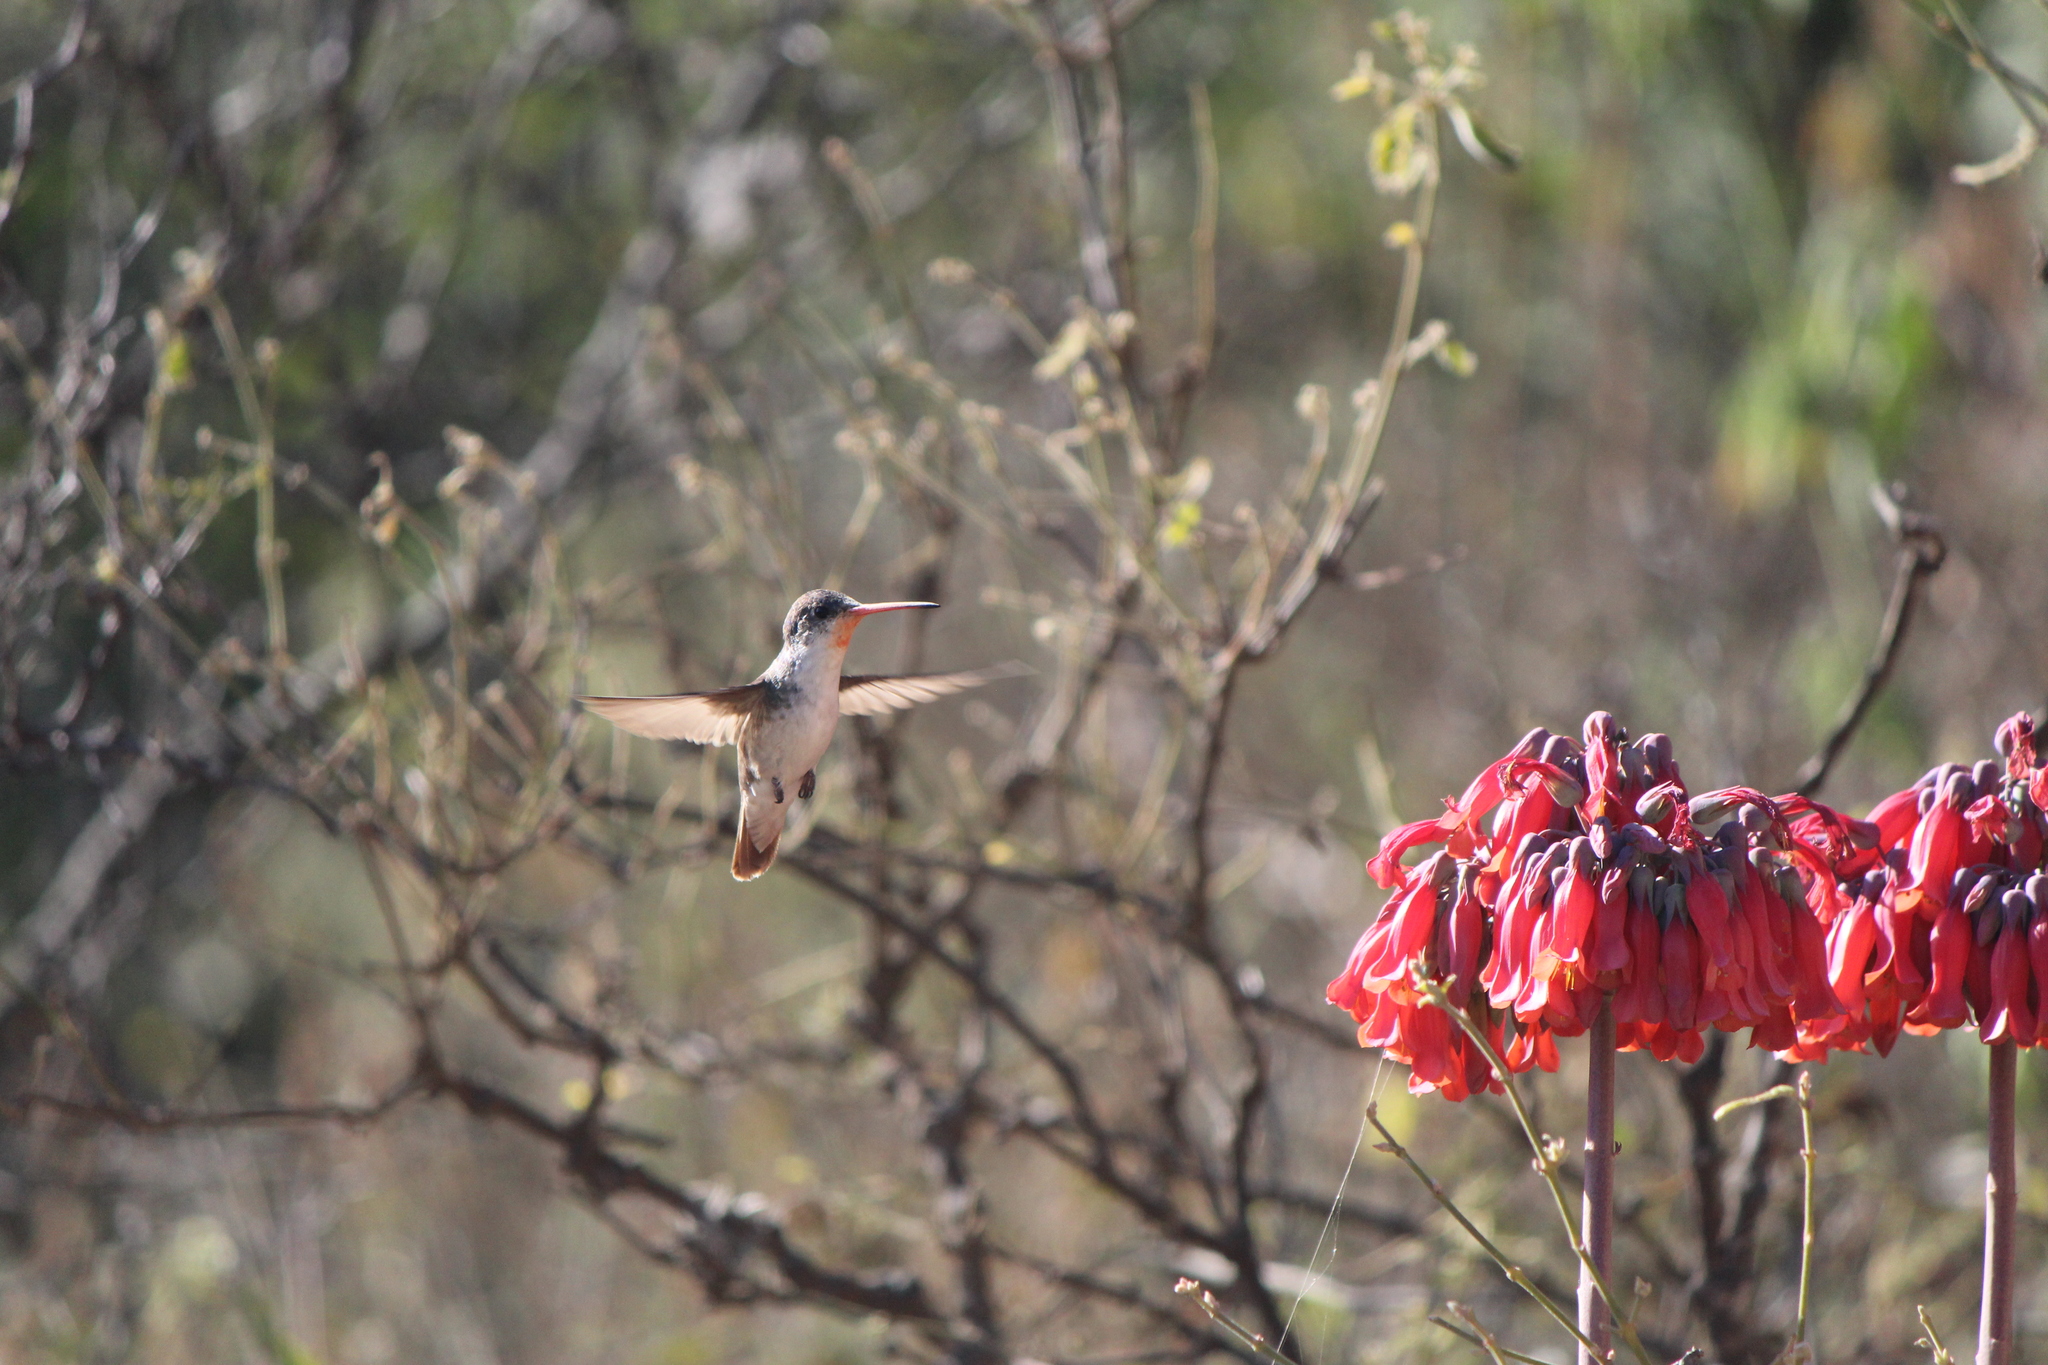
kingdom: Animalia
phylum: Chordata
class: Aves
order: Apodiformes
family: Trochilidae
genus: Leucolia
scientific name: Leucolia violiceps
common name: Violet-crowned hummingbird
